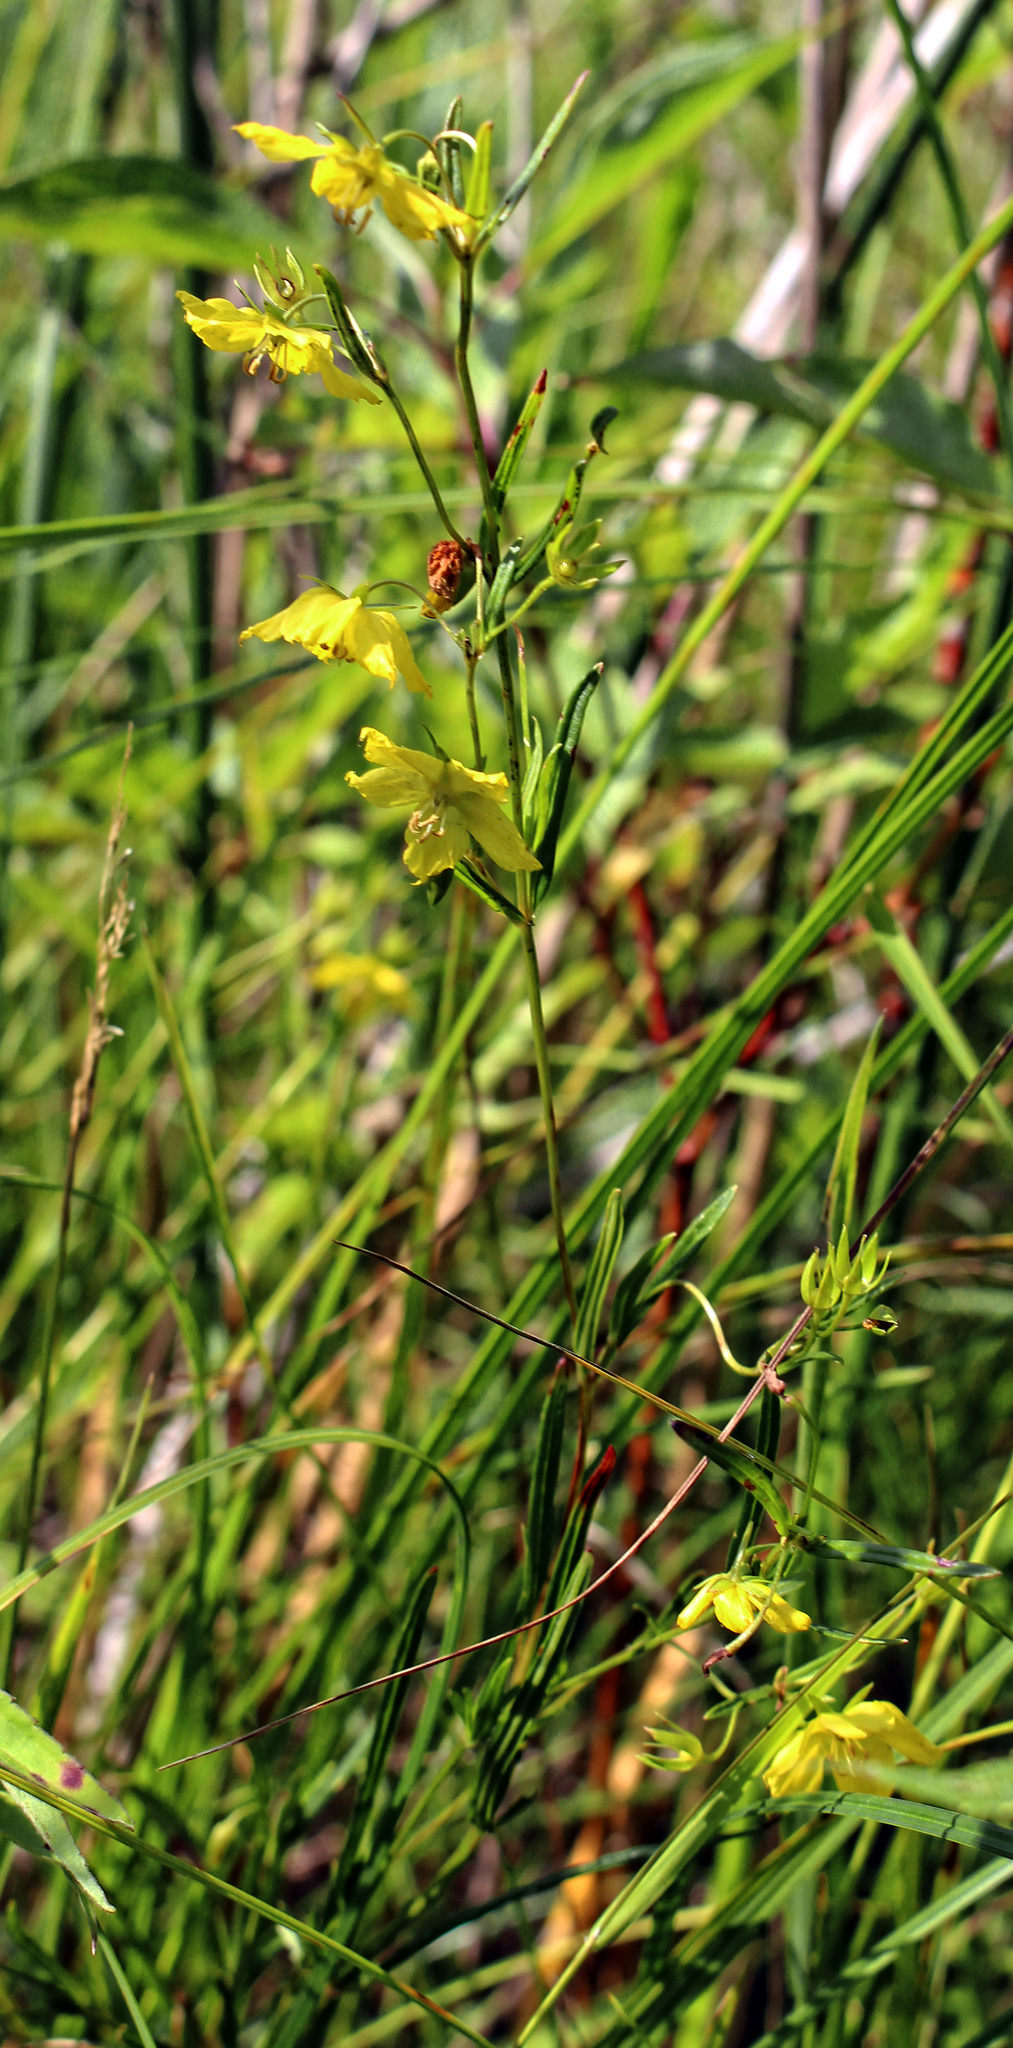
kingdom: Plantae
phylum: Tracheophyta
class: Magnoliopsida
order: Ericales
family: Primulaceae
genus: Lysimachia
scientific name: Lysimachia quadriflora
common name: Four-flowered loosestrife
